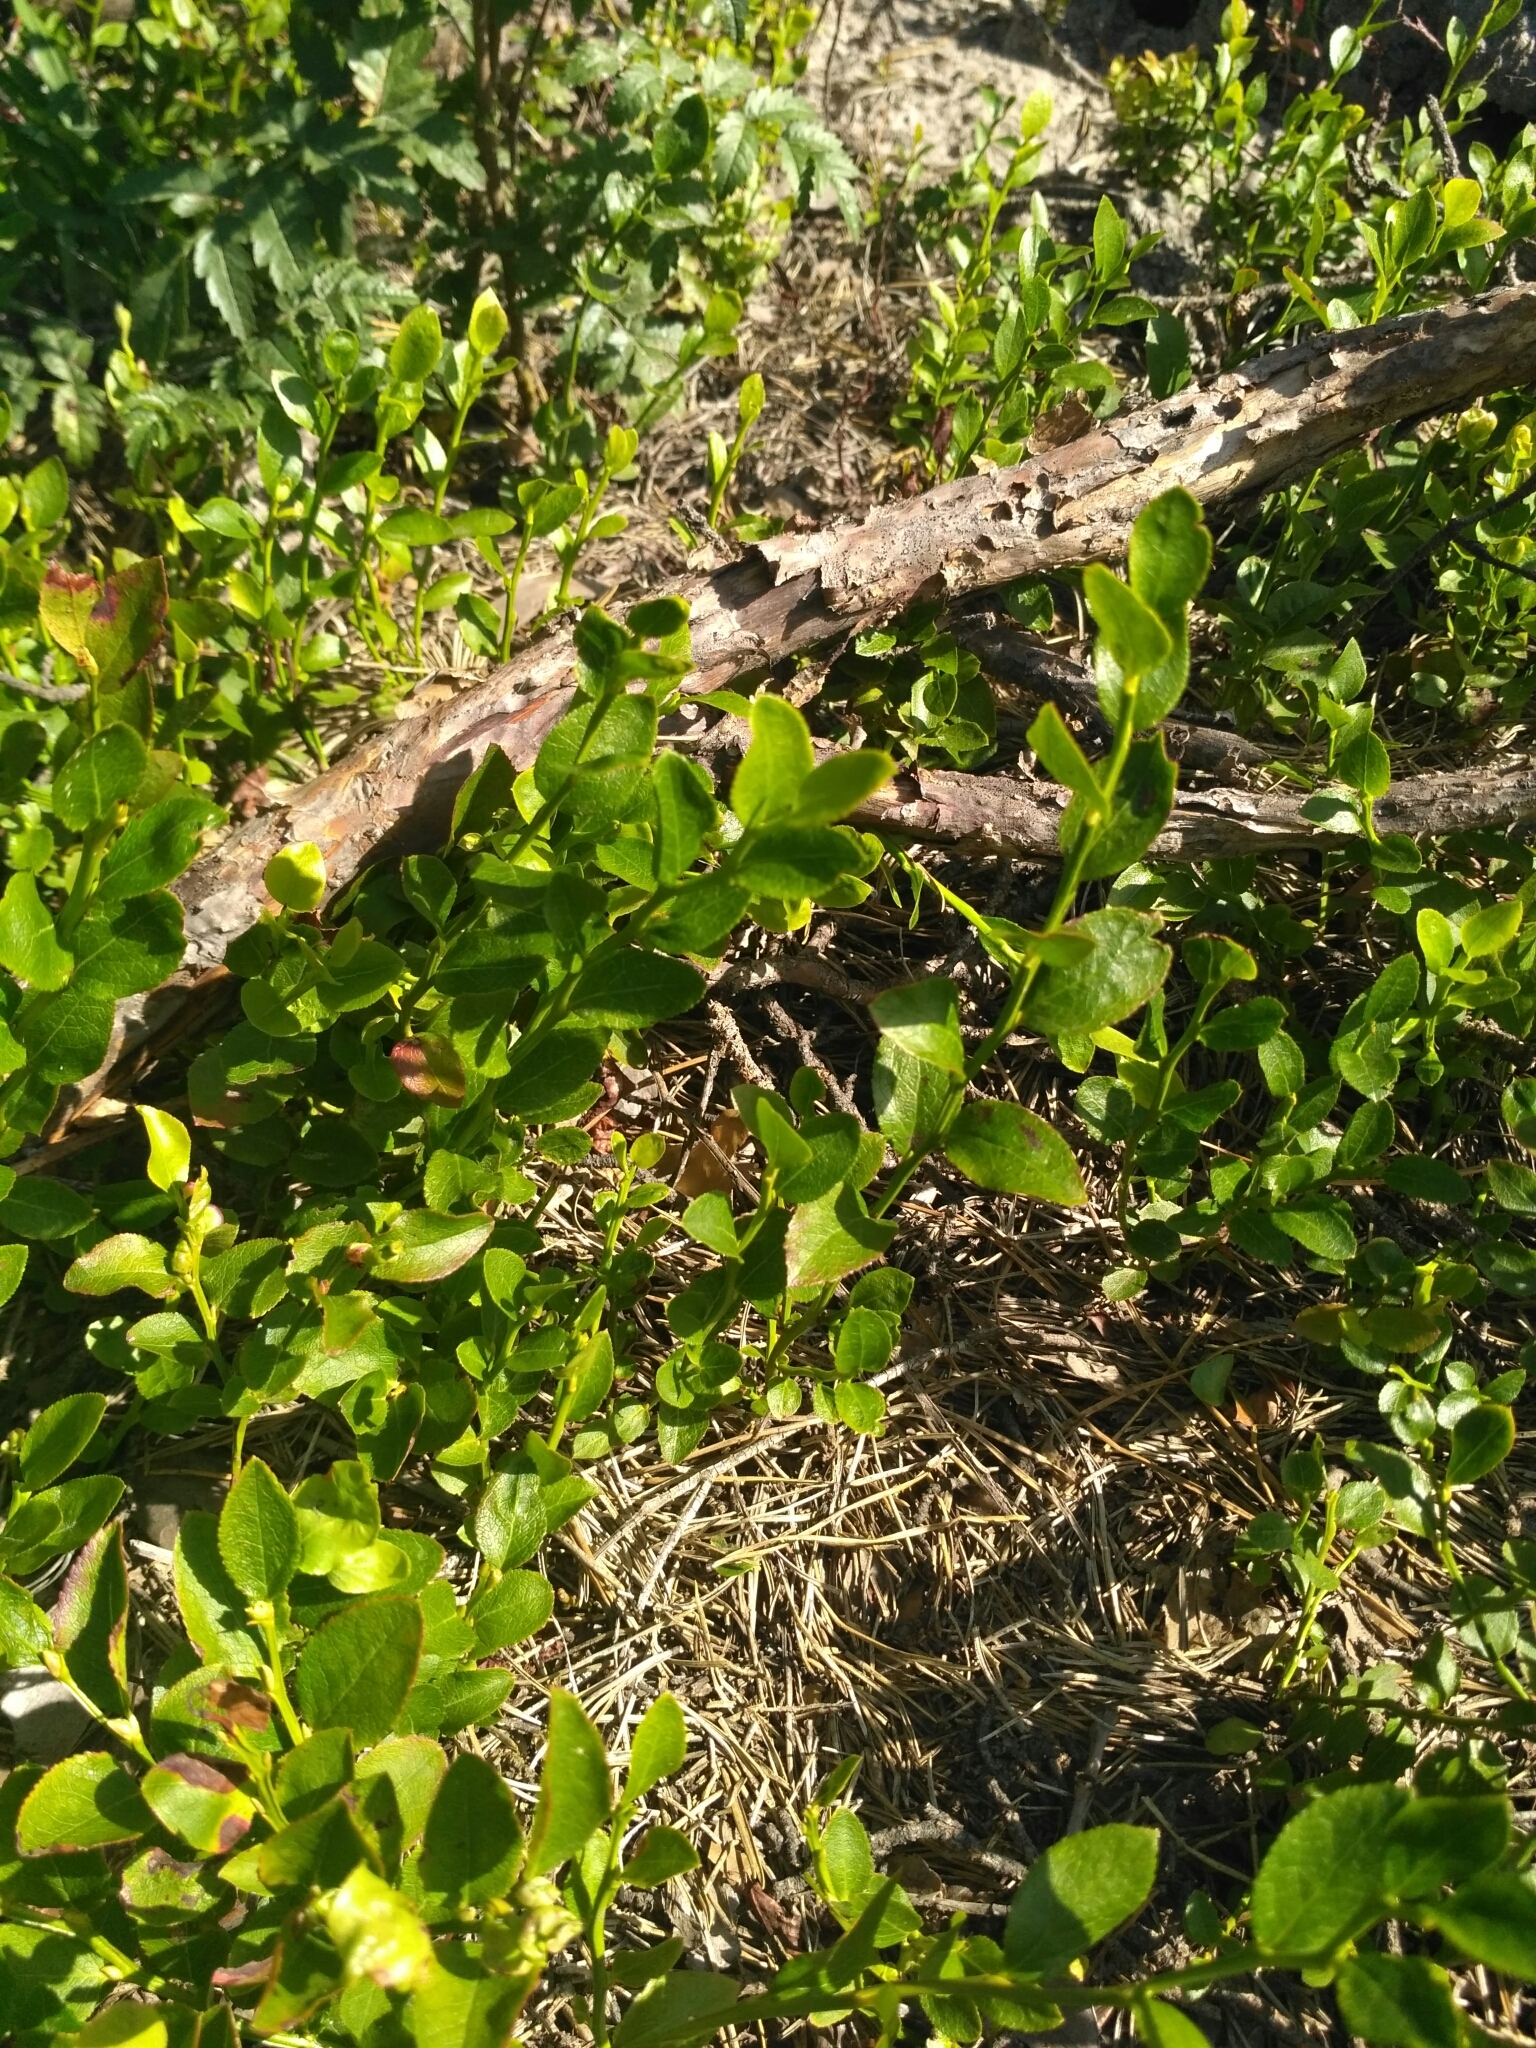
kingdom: Plantae
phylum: Tracheophyta
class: Magnoliopsida
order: Ericales
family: Ericaceae
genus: Vaccinium
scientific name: Vaccinium myrtillus
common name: Bilberry
